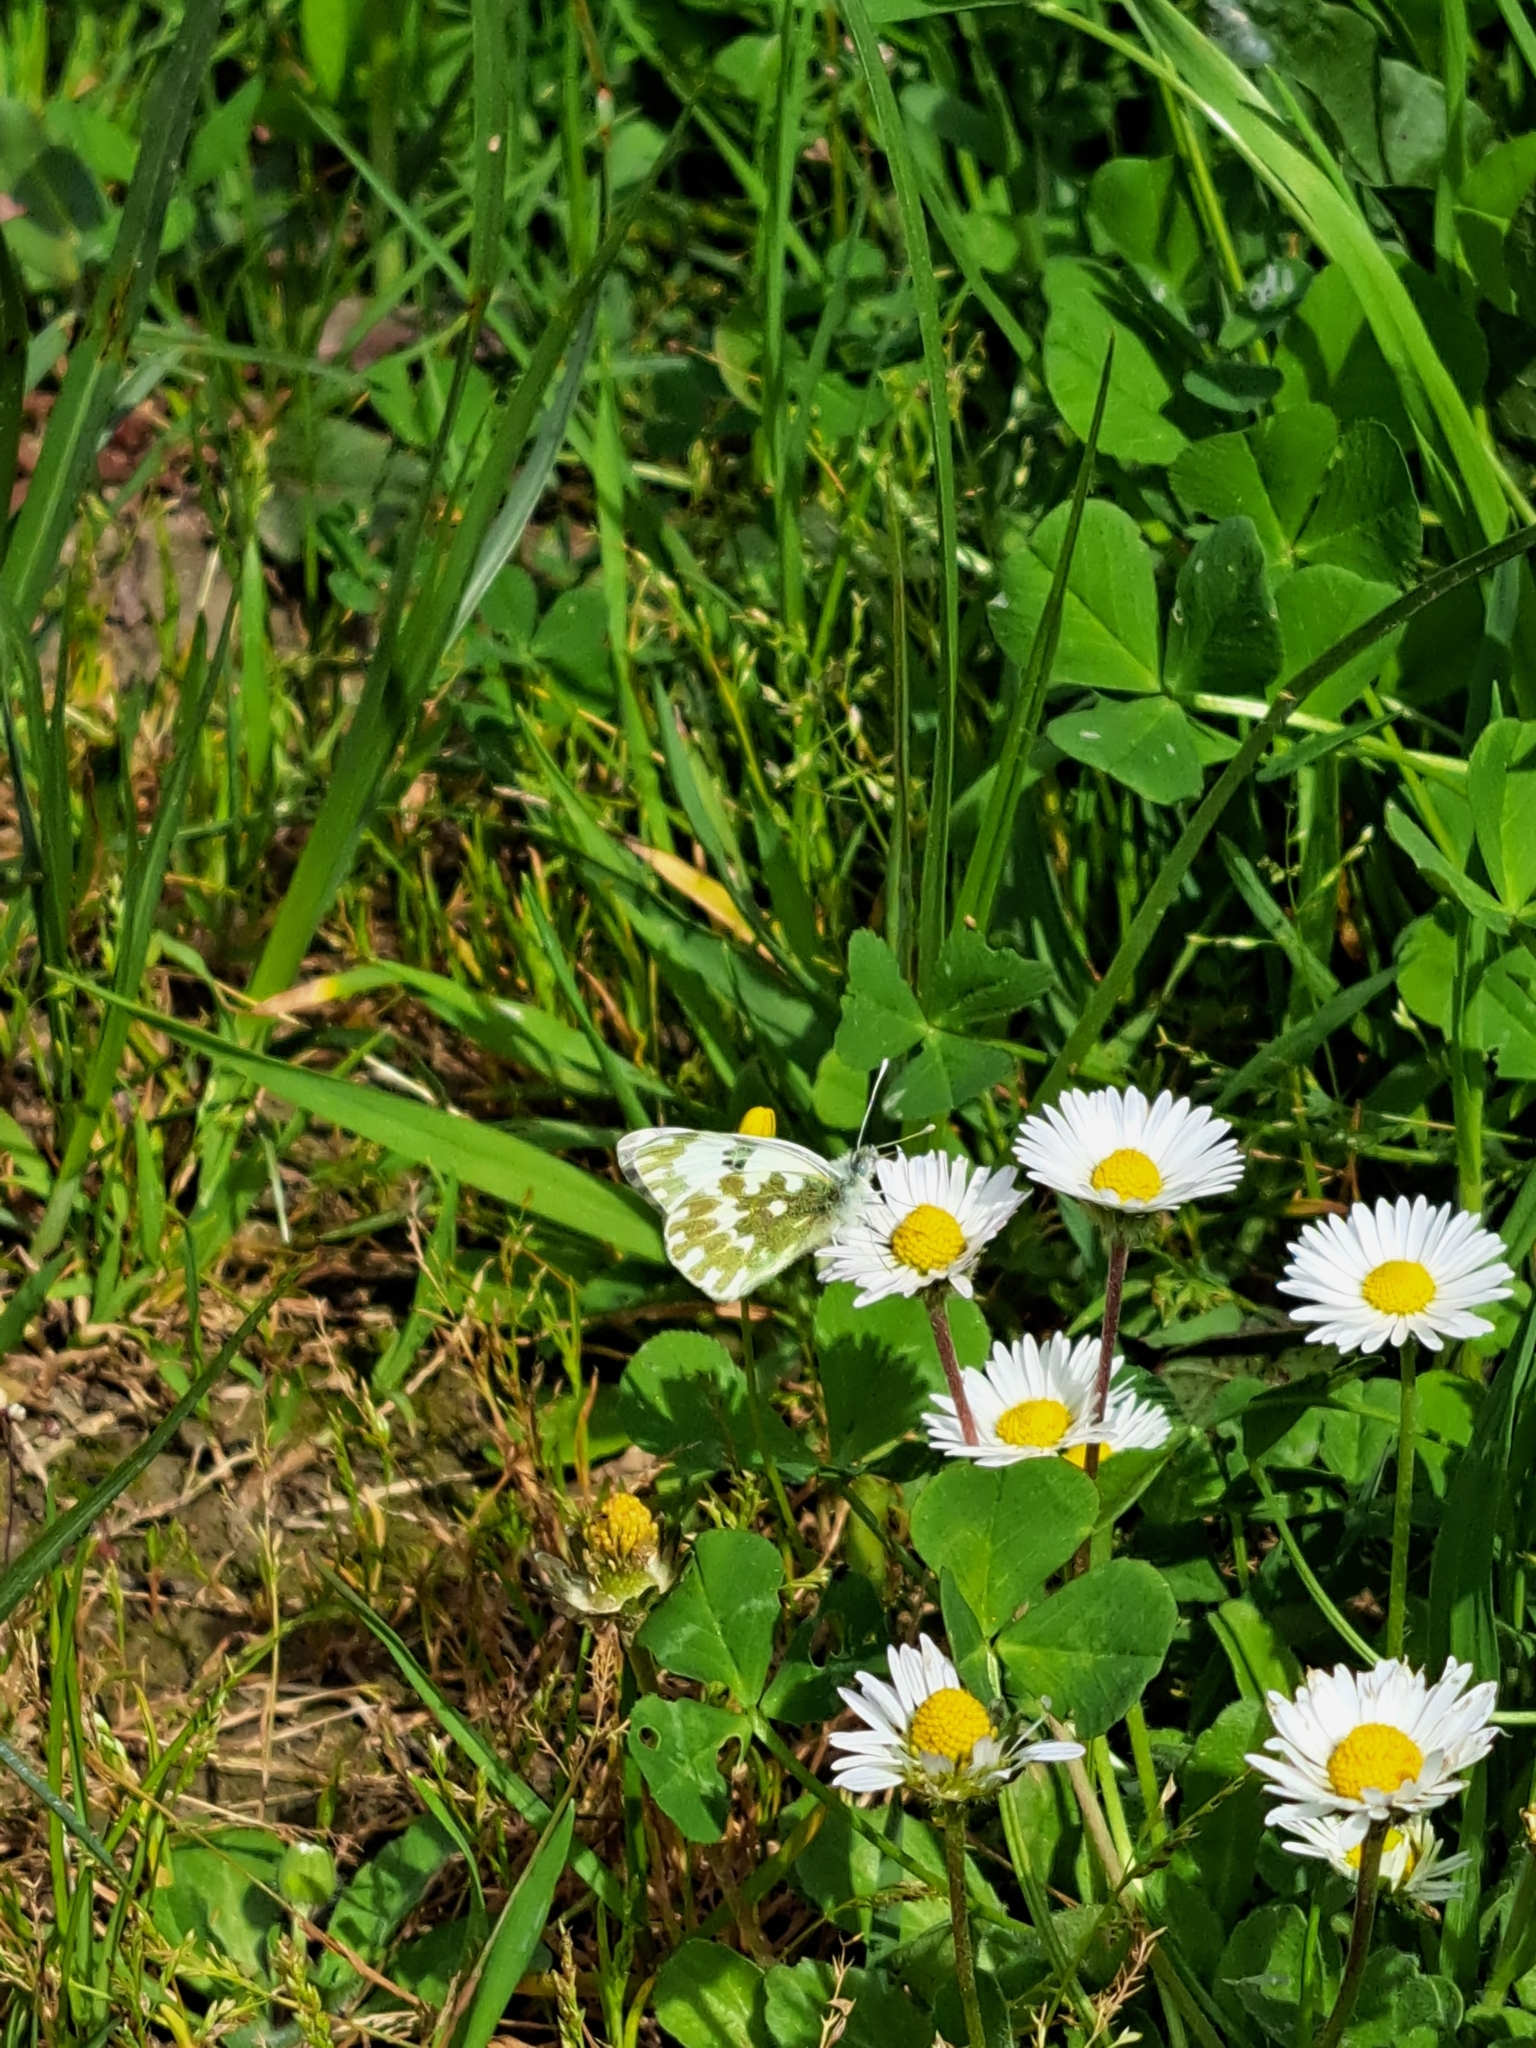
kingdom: Animalia
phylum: Arthropoda
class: Insecta
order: Lepidoptera
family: Pieridae
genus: Pontia
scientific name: Pontia edusa
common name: Eastern bath white
